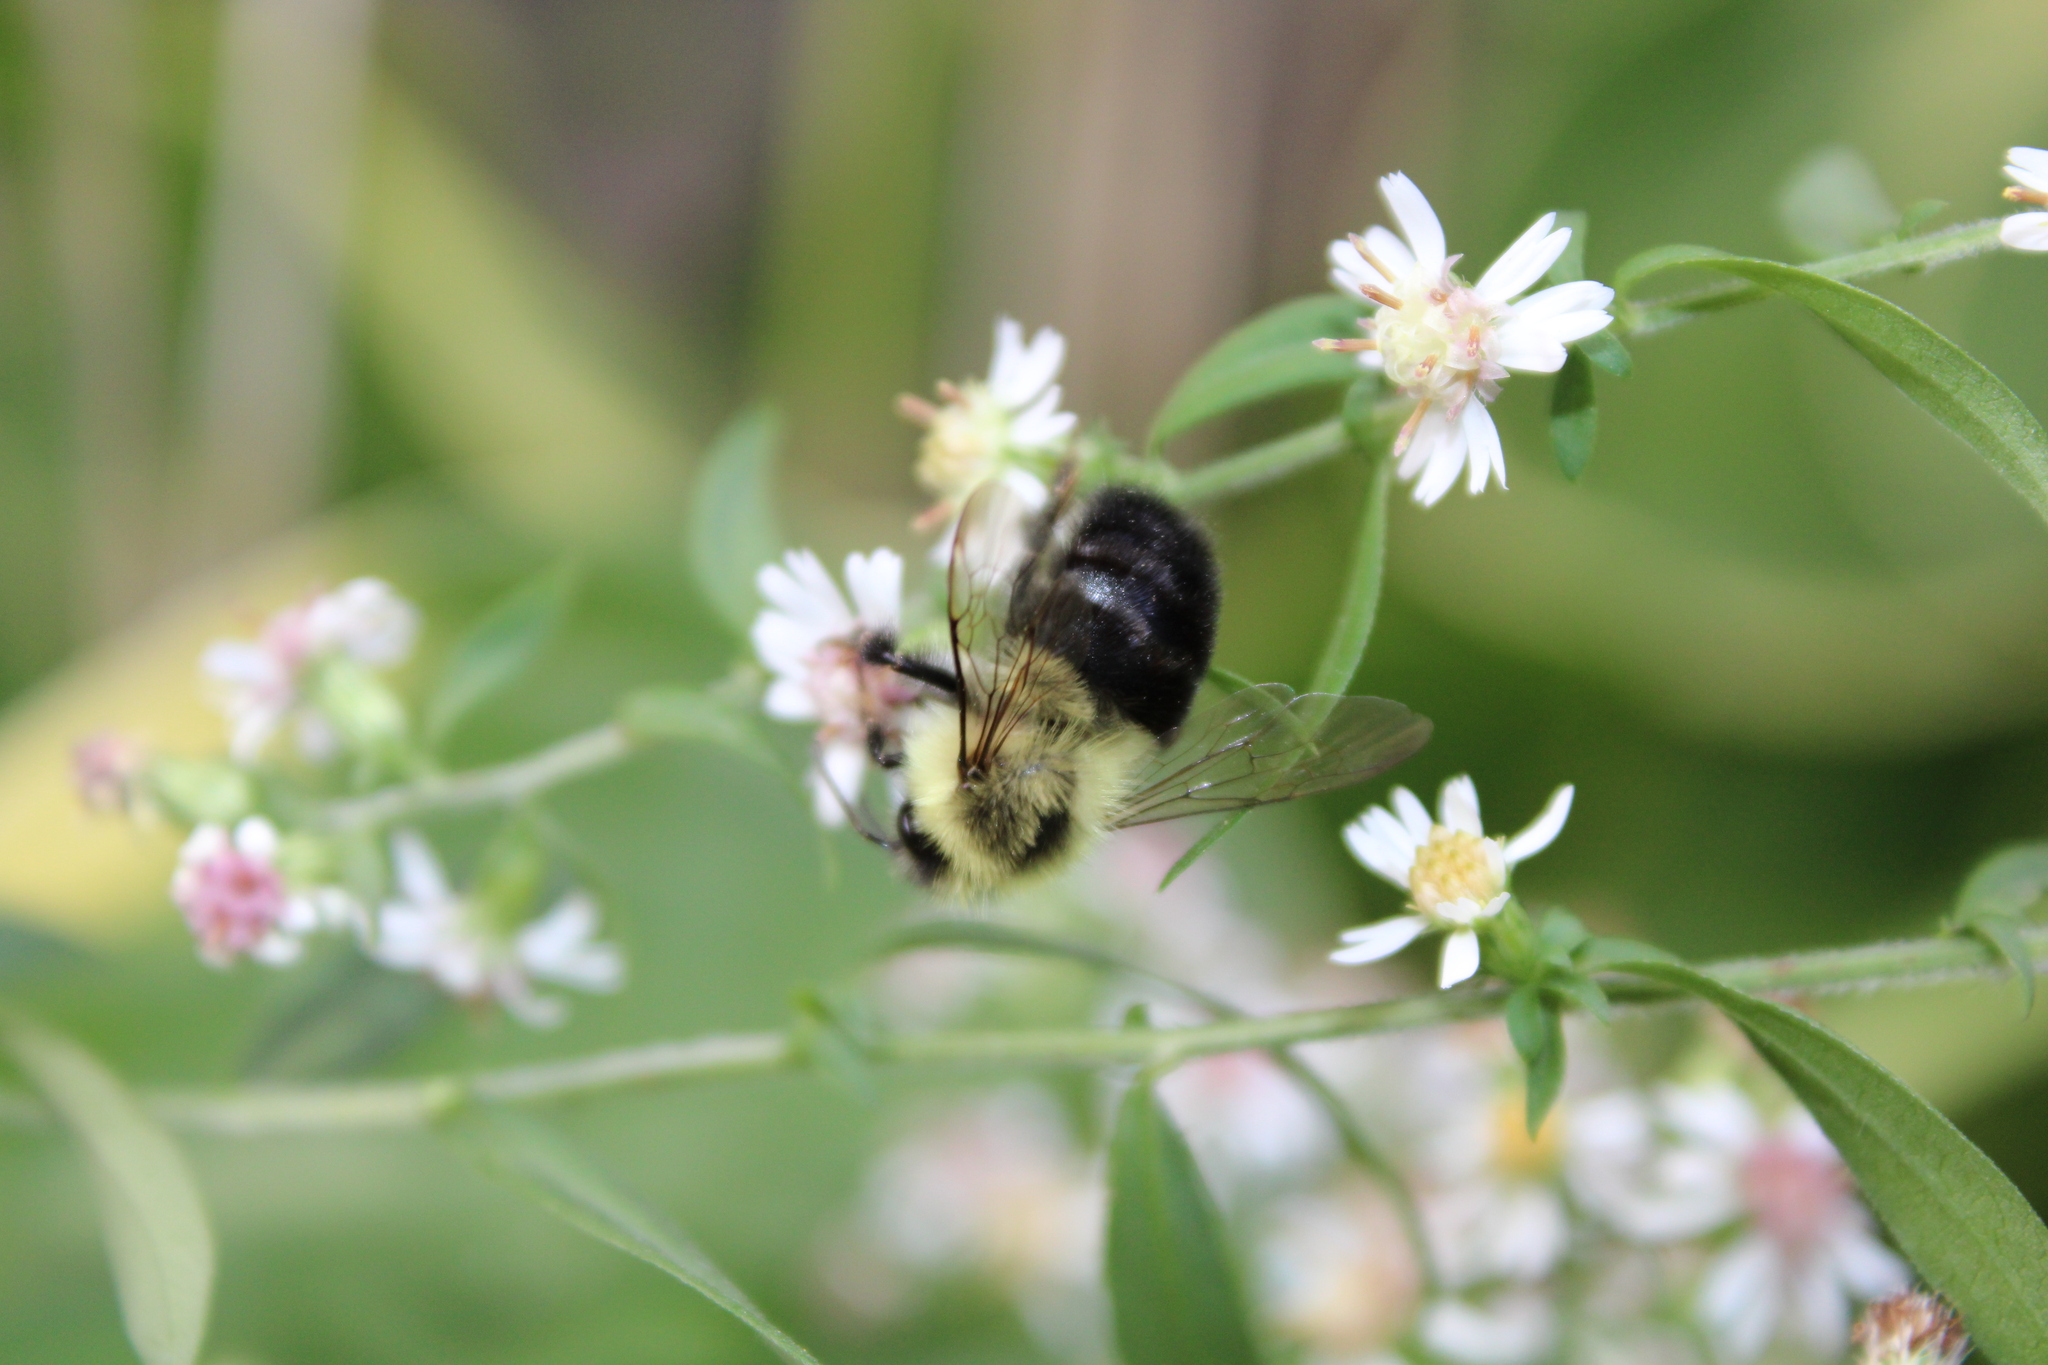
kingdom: Animalia
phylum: Arthropoda
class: Insecta
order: Hymenoptera
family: Apidae
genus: Bombus
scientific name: Bombus impatiens
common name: Common eastern bumble bee
